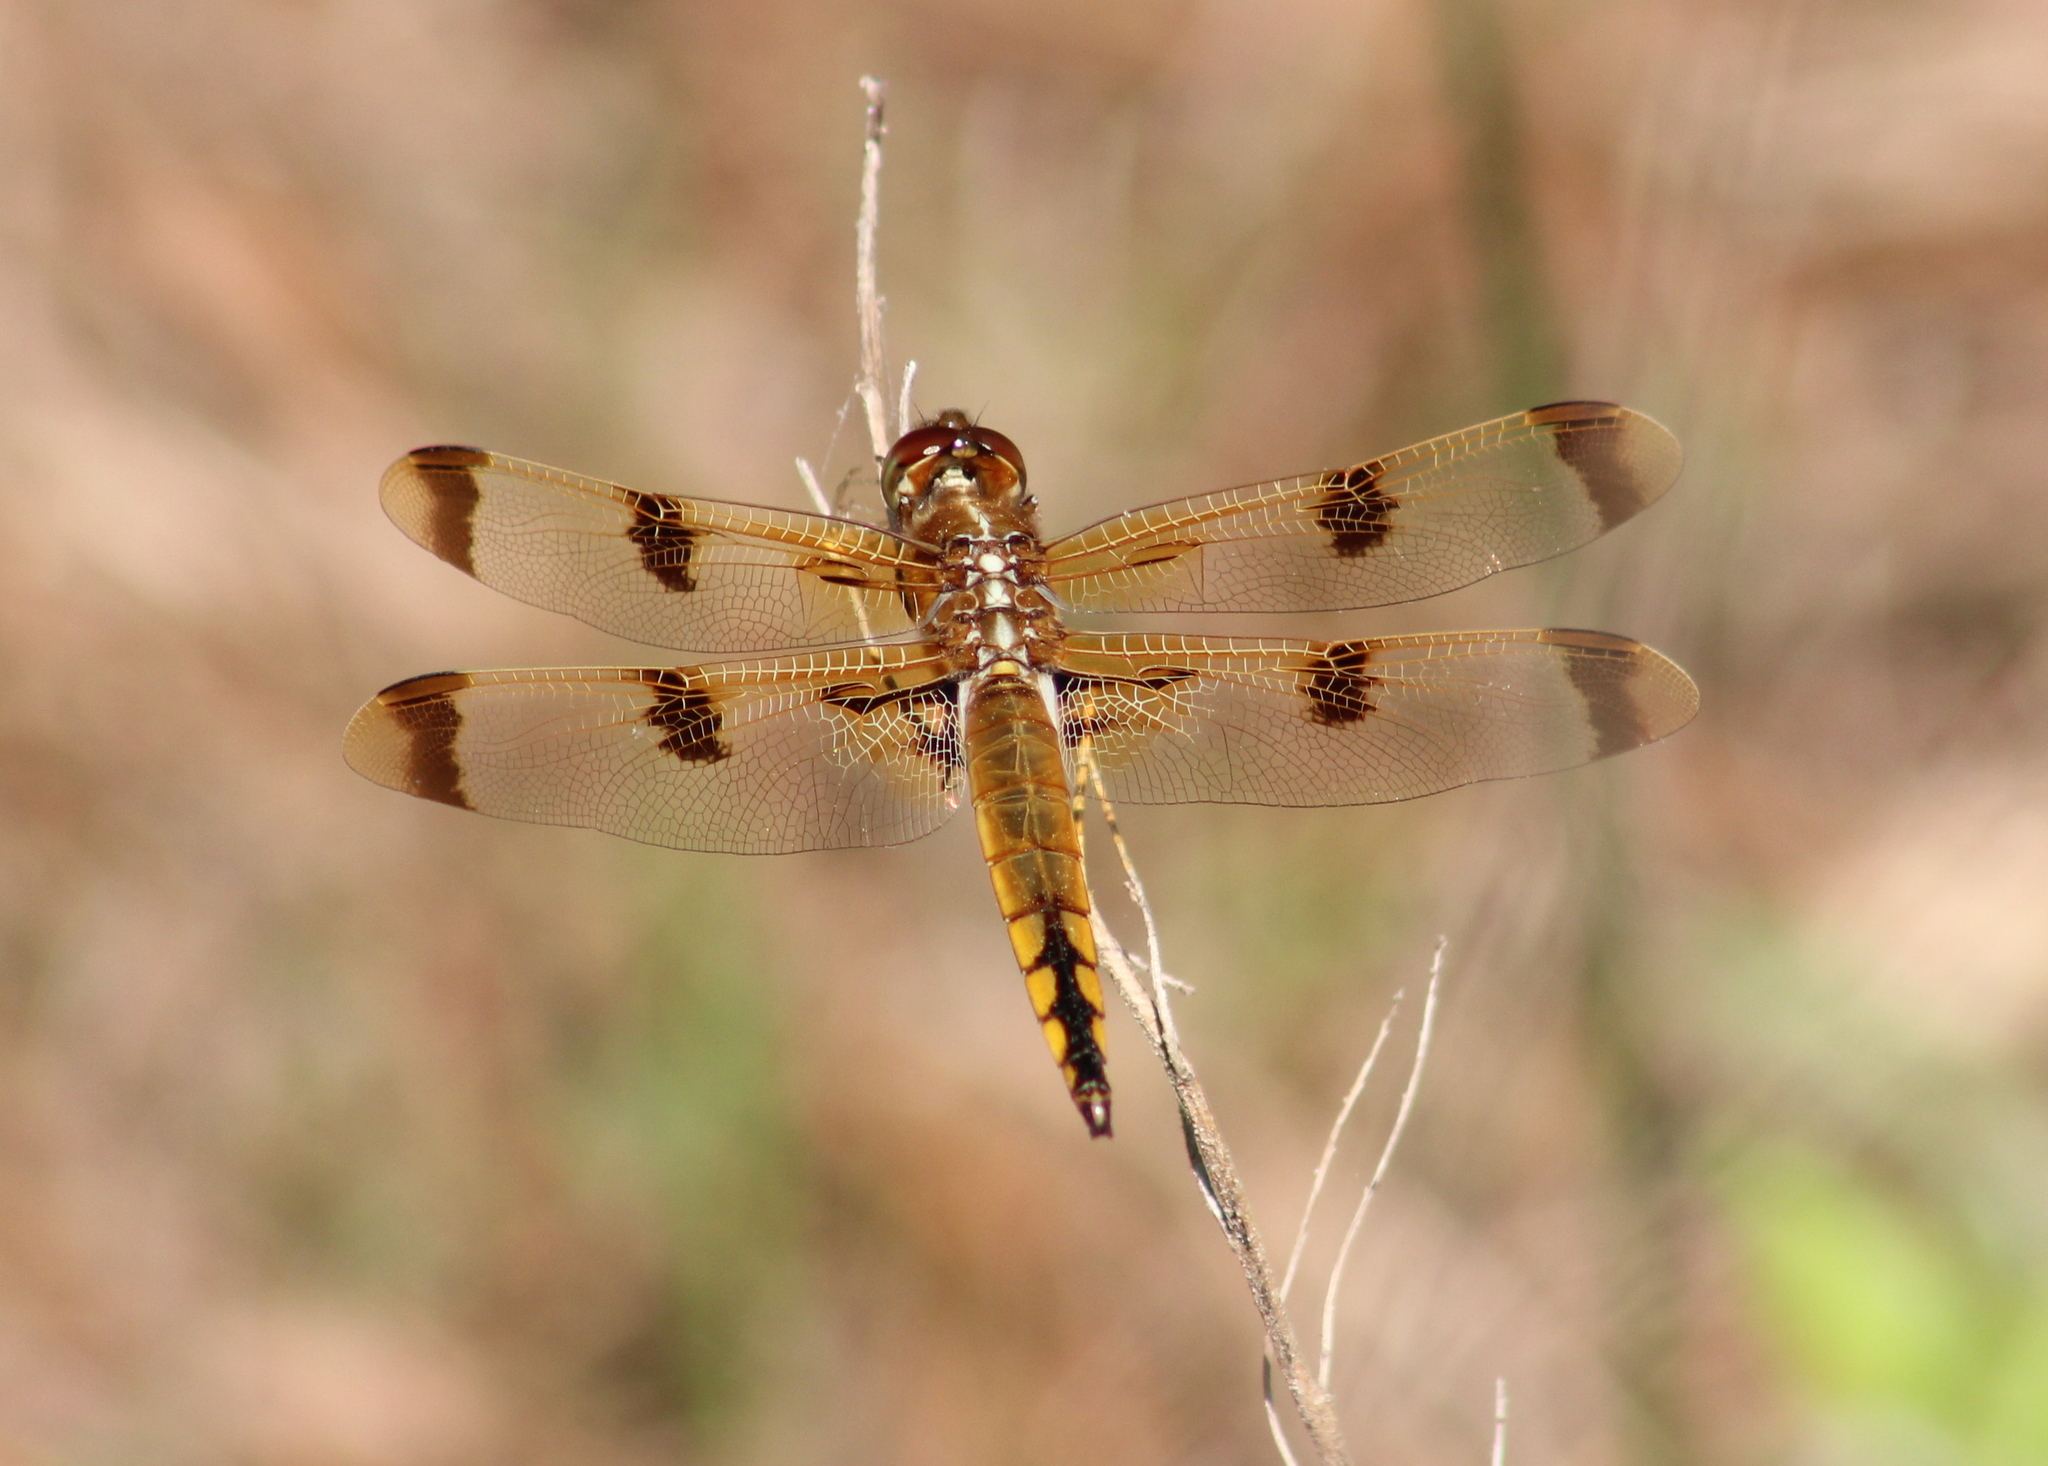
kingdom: Animalia
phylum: Arthropoda
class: Insecta
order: Odonata
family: Libellulidae
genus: Libellula
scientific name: Libellula semifasciata
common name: Painted skimmer
